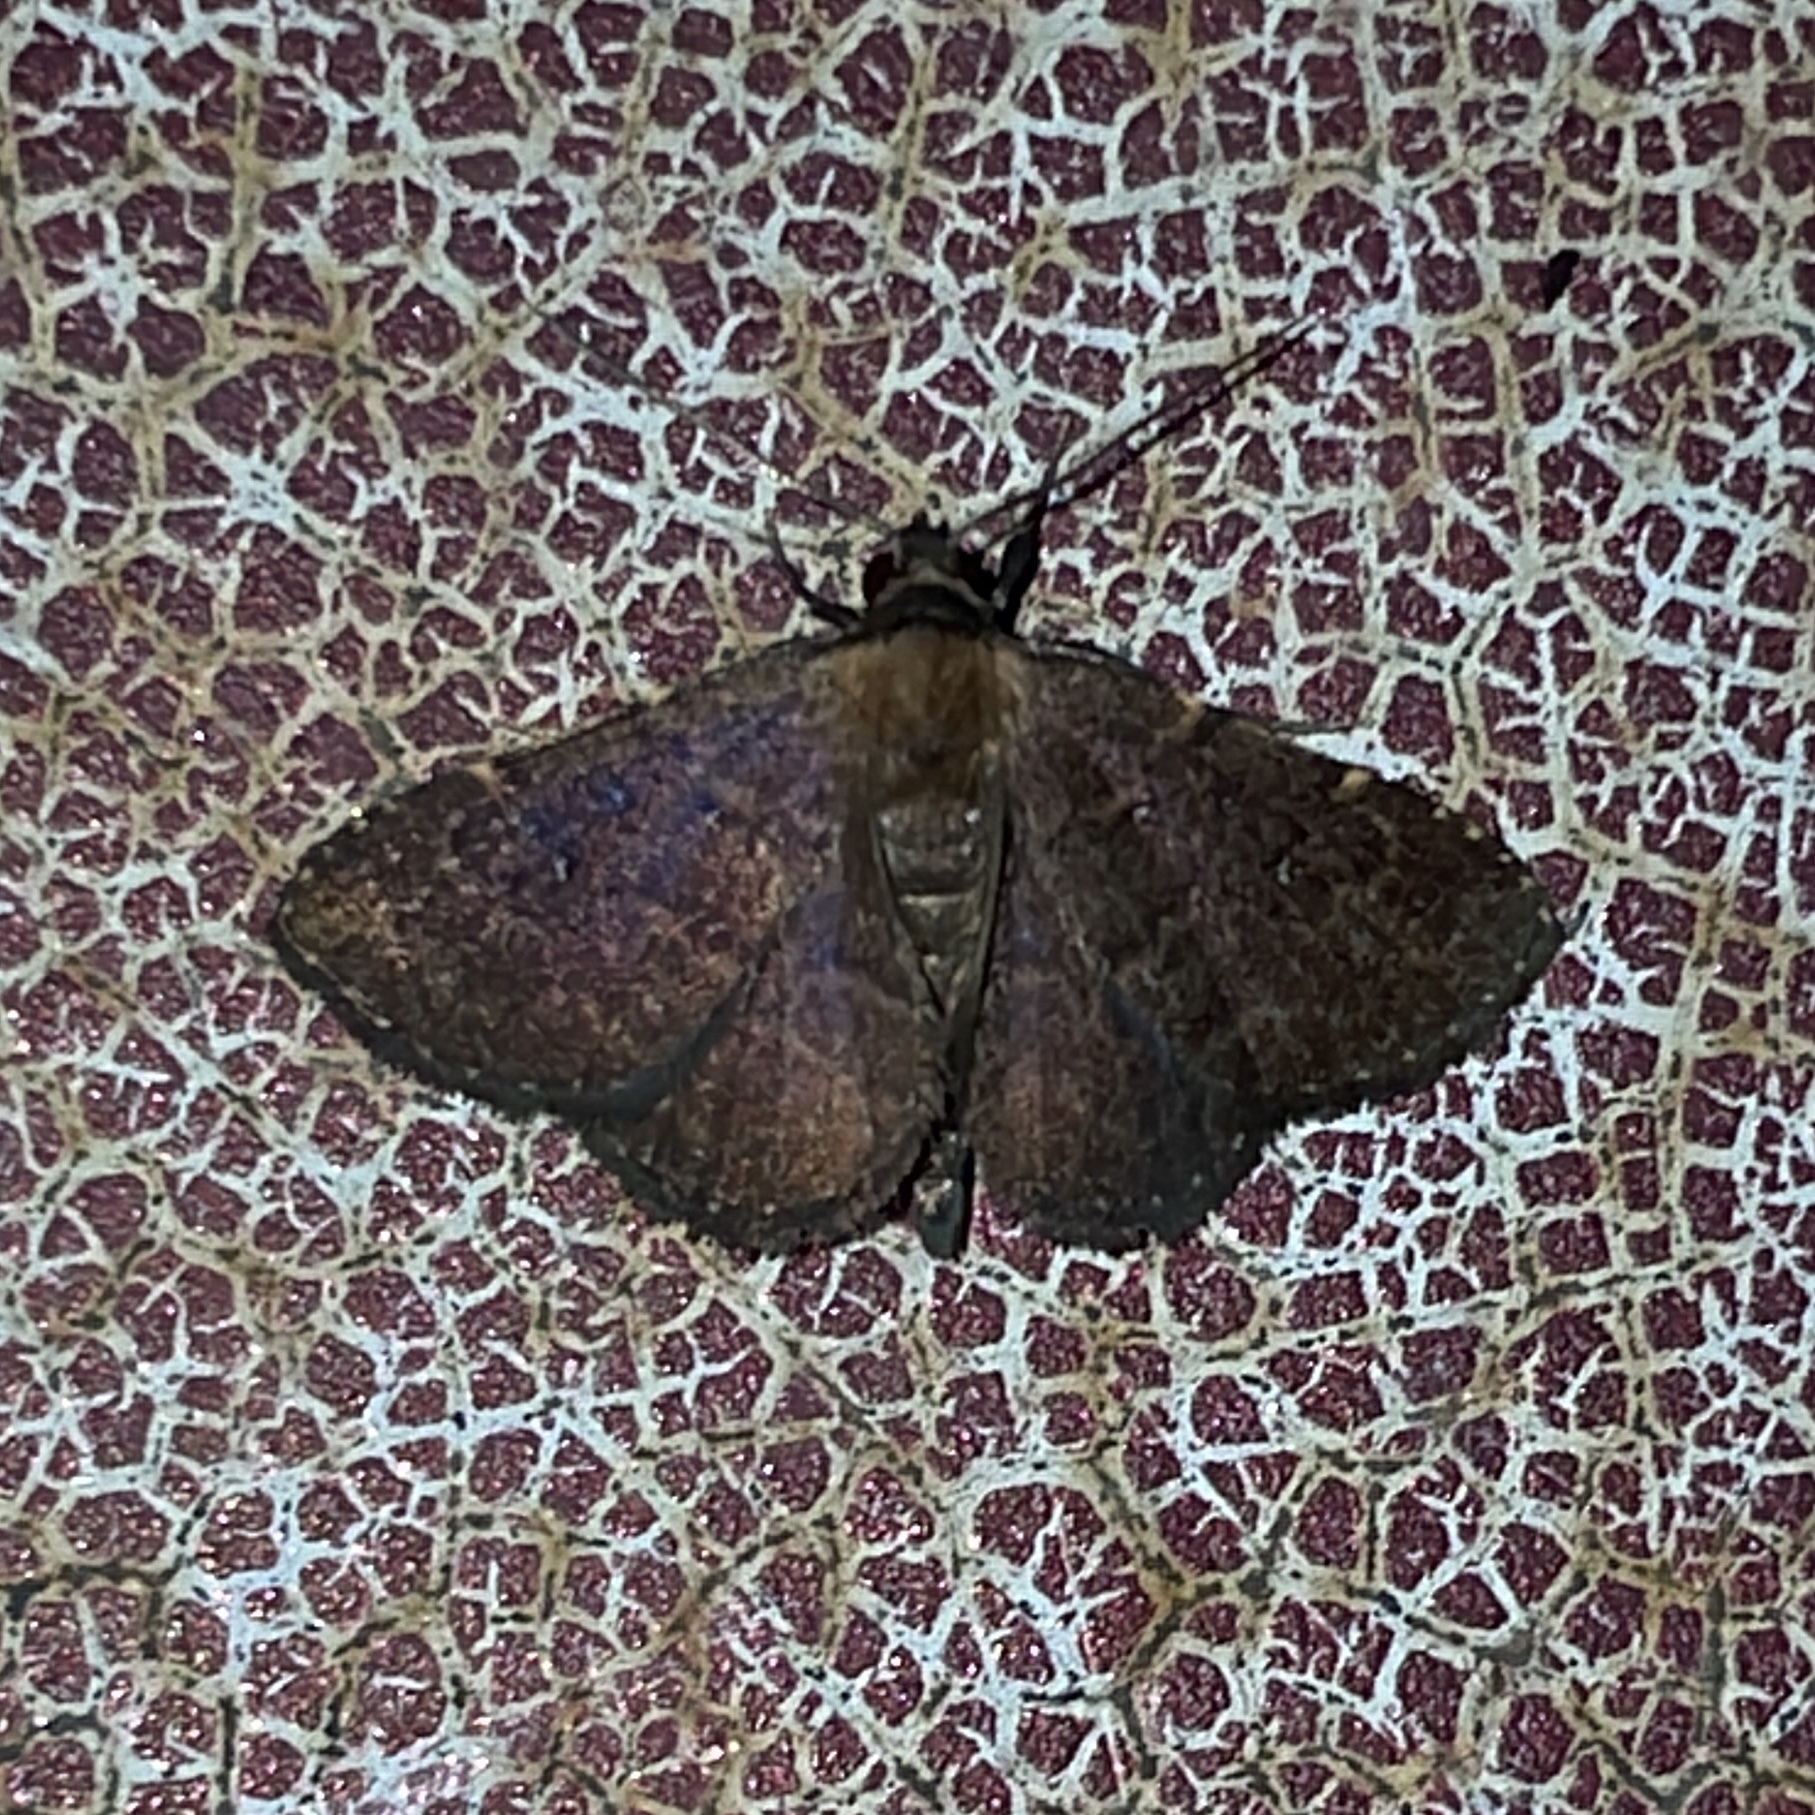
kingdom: Animalia
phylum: Arthropoda
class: Insecta
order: Lepidoptera
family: Erebidae
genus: Ostha
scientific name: Ostha coryphata
